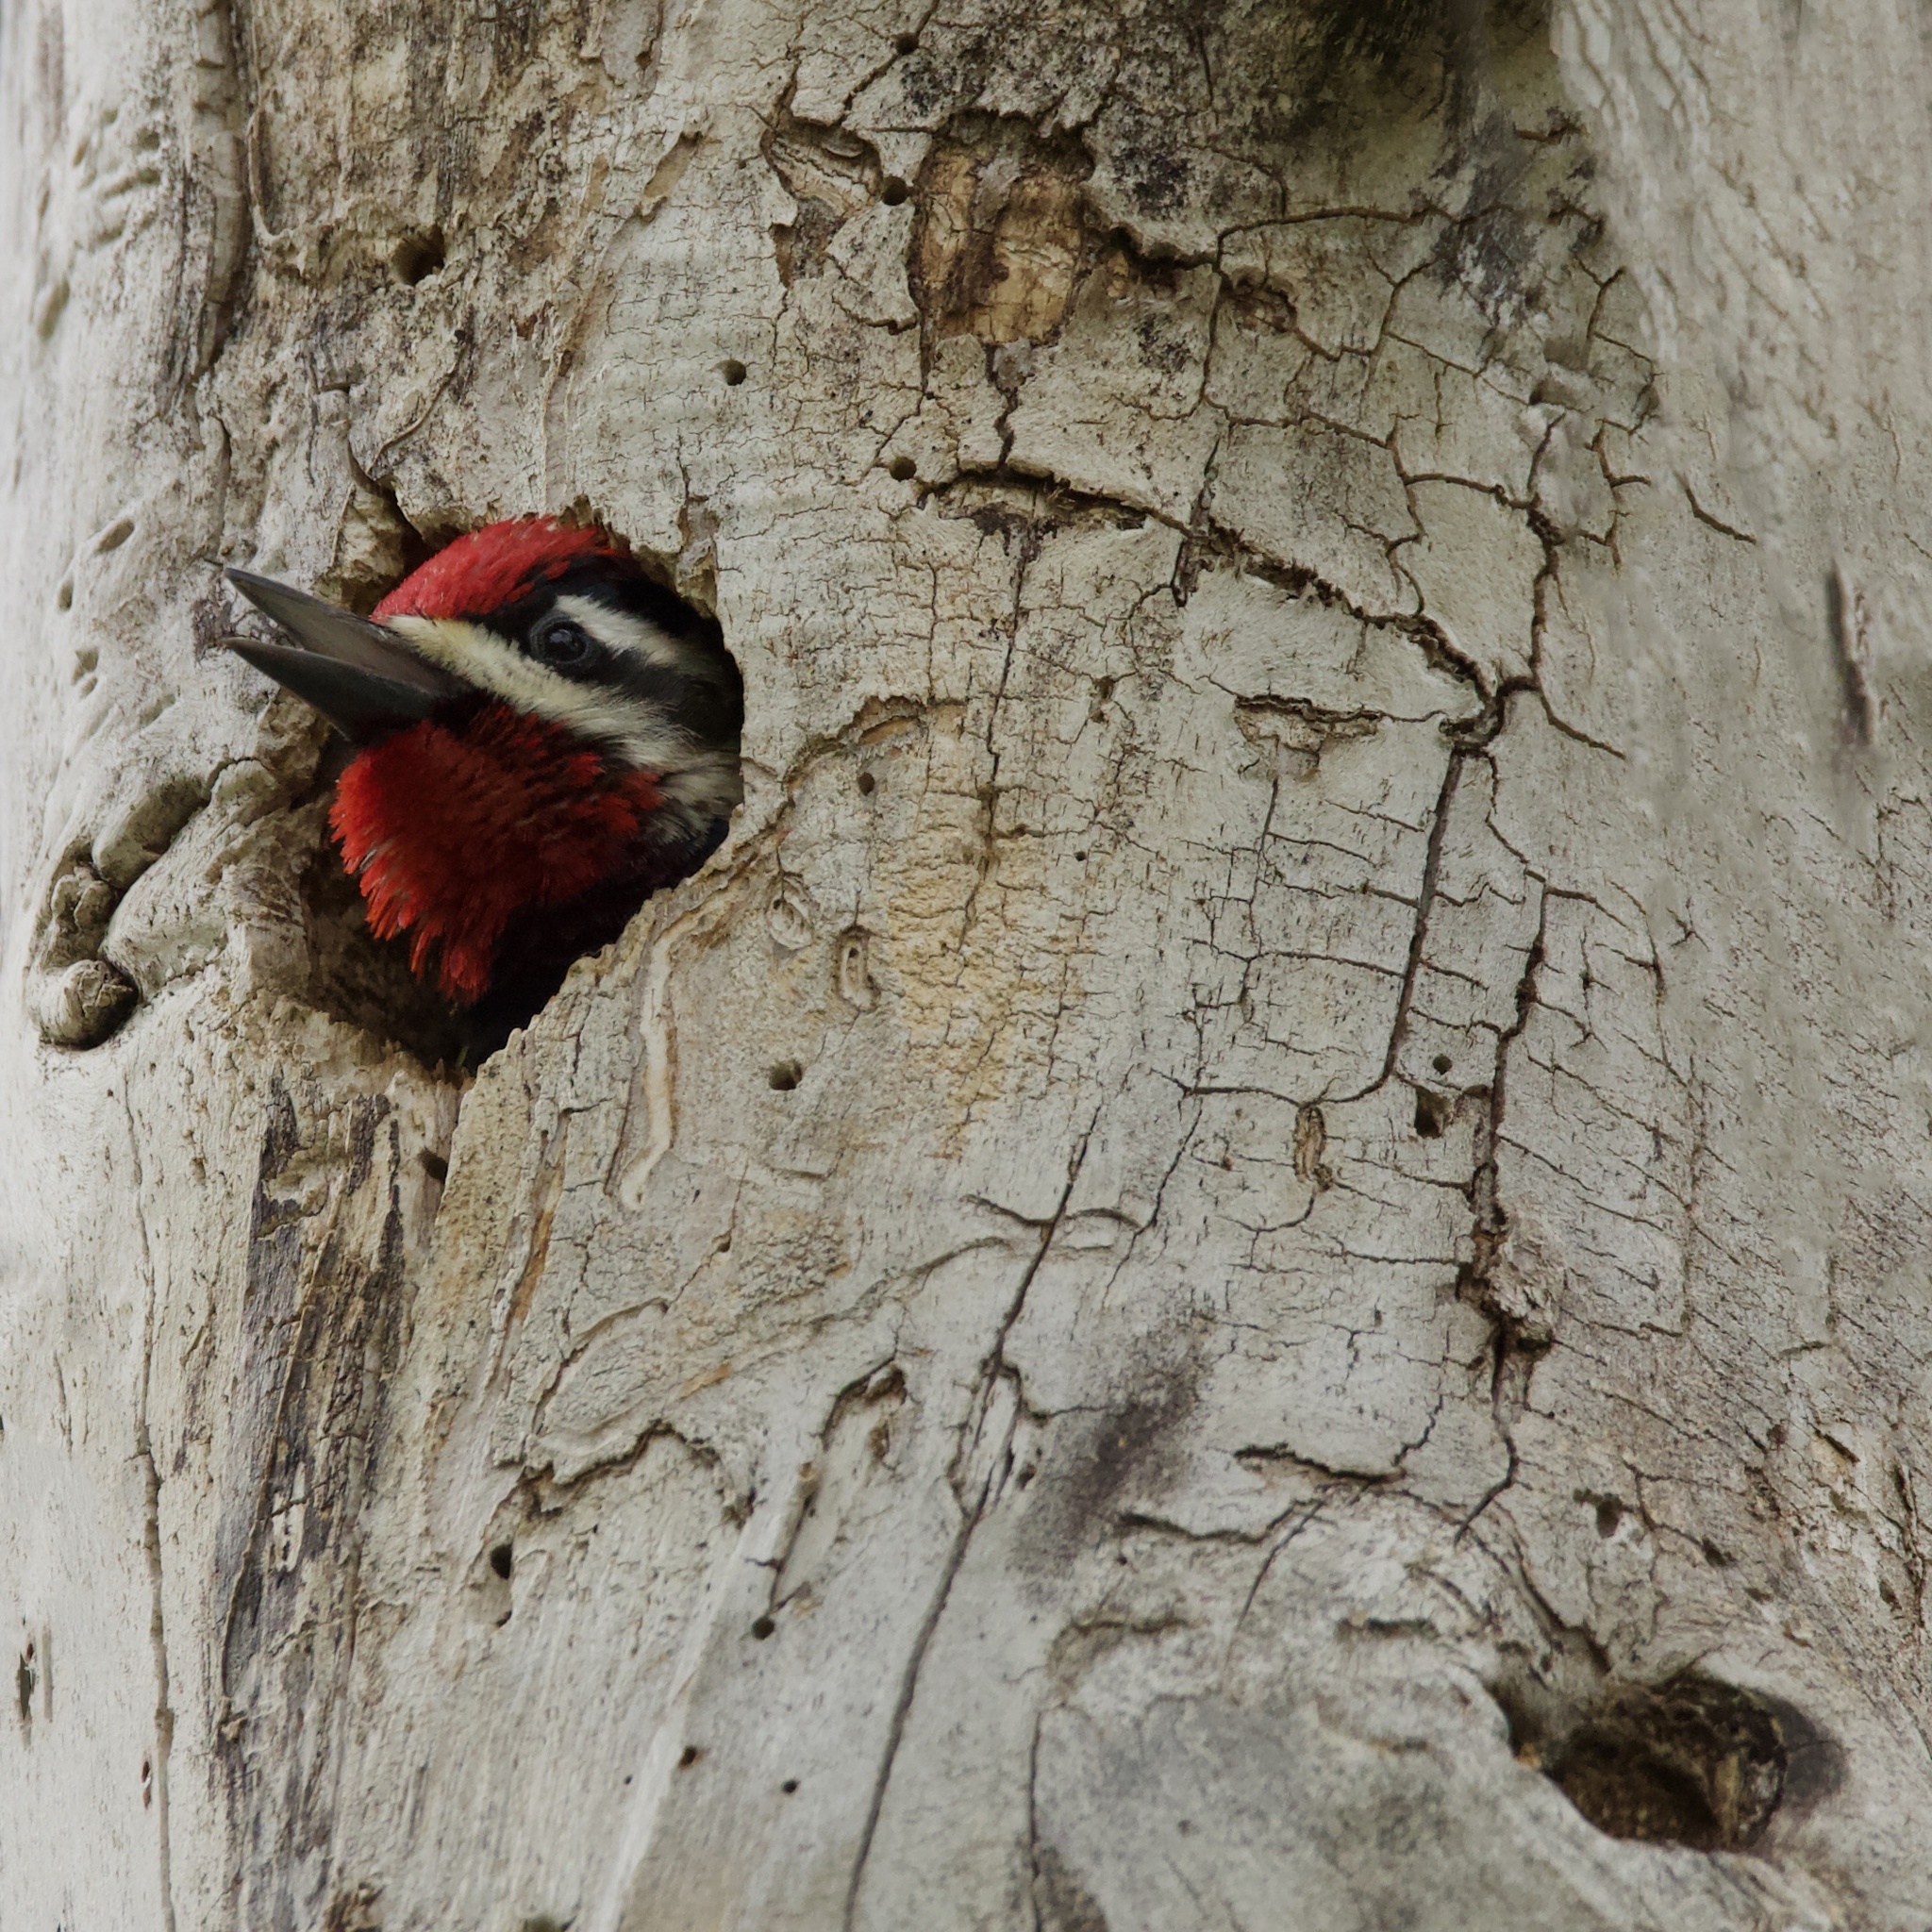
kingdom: Animalia
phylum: Chordata
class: Aves
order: Piciformes
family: Picidae
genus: Sphyrapicus
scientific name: Sphyrapicus nuchalis
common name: Red-naped sapsucker
